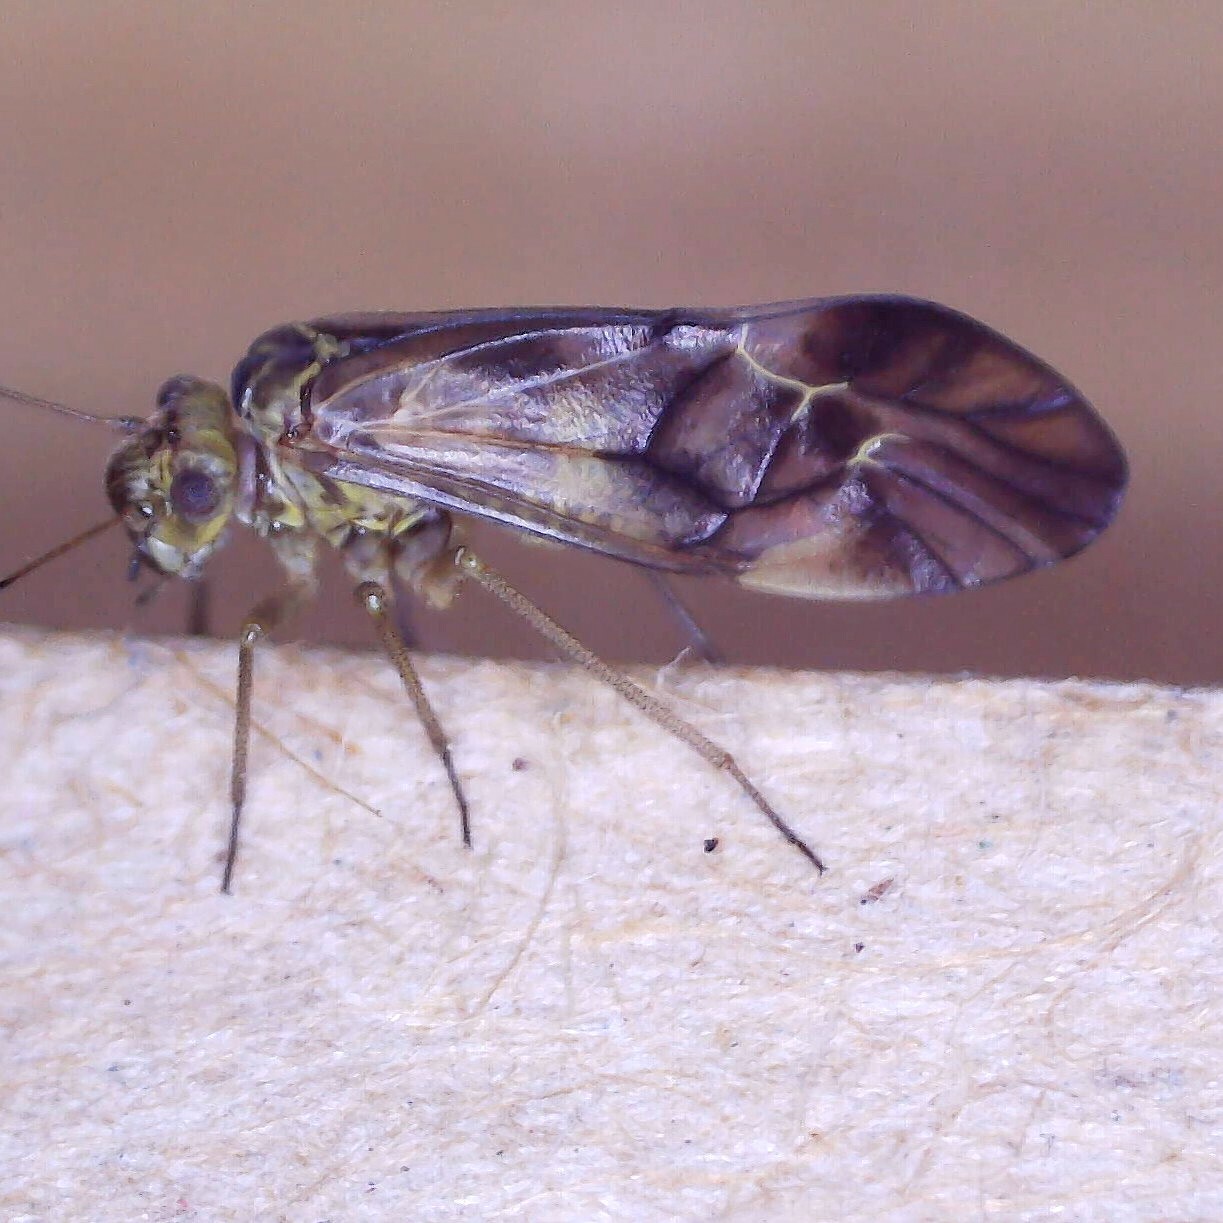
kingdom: Animalia
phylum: Arthropoda
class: Insecta
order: Psocodea
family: Psocidae
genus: Metylophorus
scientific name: Metylophorus nebulosus
